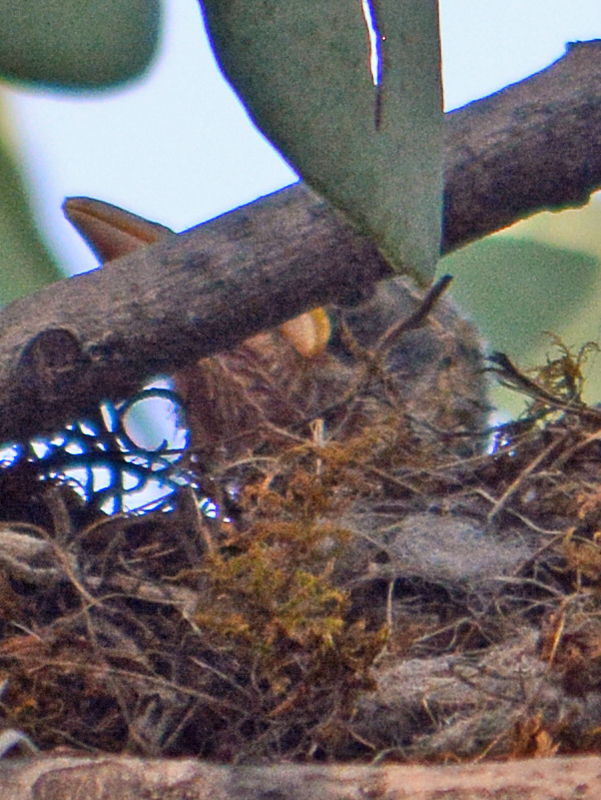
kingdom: Animalia
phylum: Chordata
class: Aves
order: Passeriformes
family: Turdidae
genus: Turdus
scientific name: Turdus rufopalliatus
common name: Rufous-backed robin
